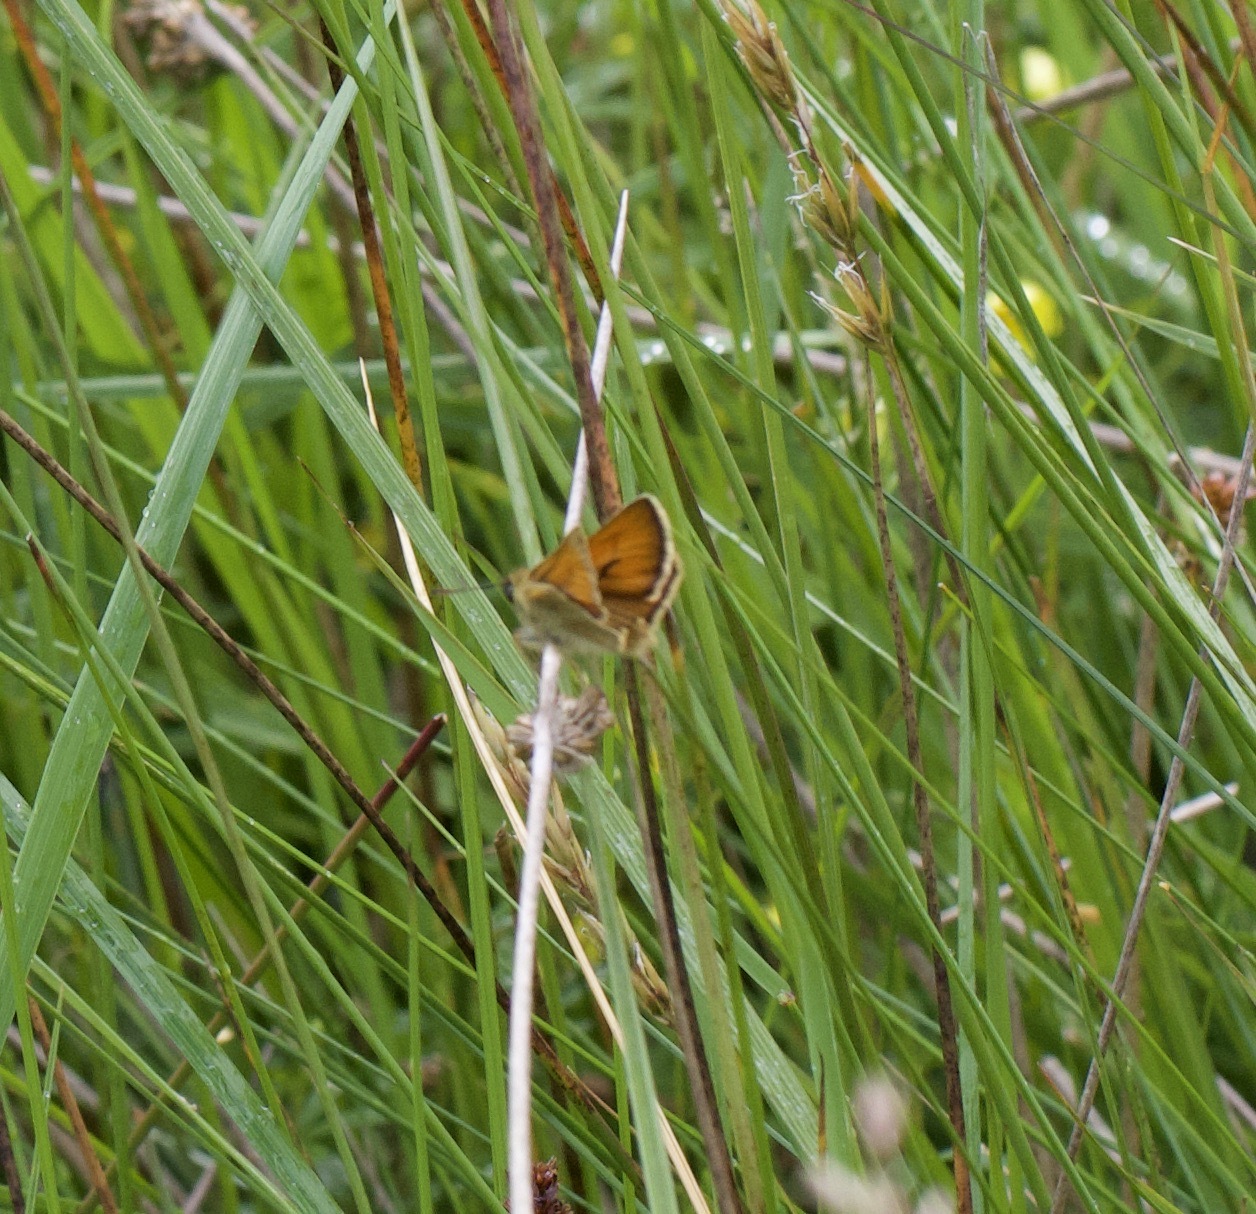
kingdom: Animalia
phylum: Arthropoda
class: Insecta
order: Lepidoptera
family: Hesperiidae
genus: Thymelicus
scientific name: Thymelicus sylvestris
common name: Small skipper
